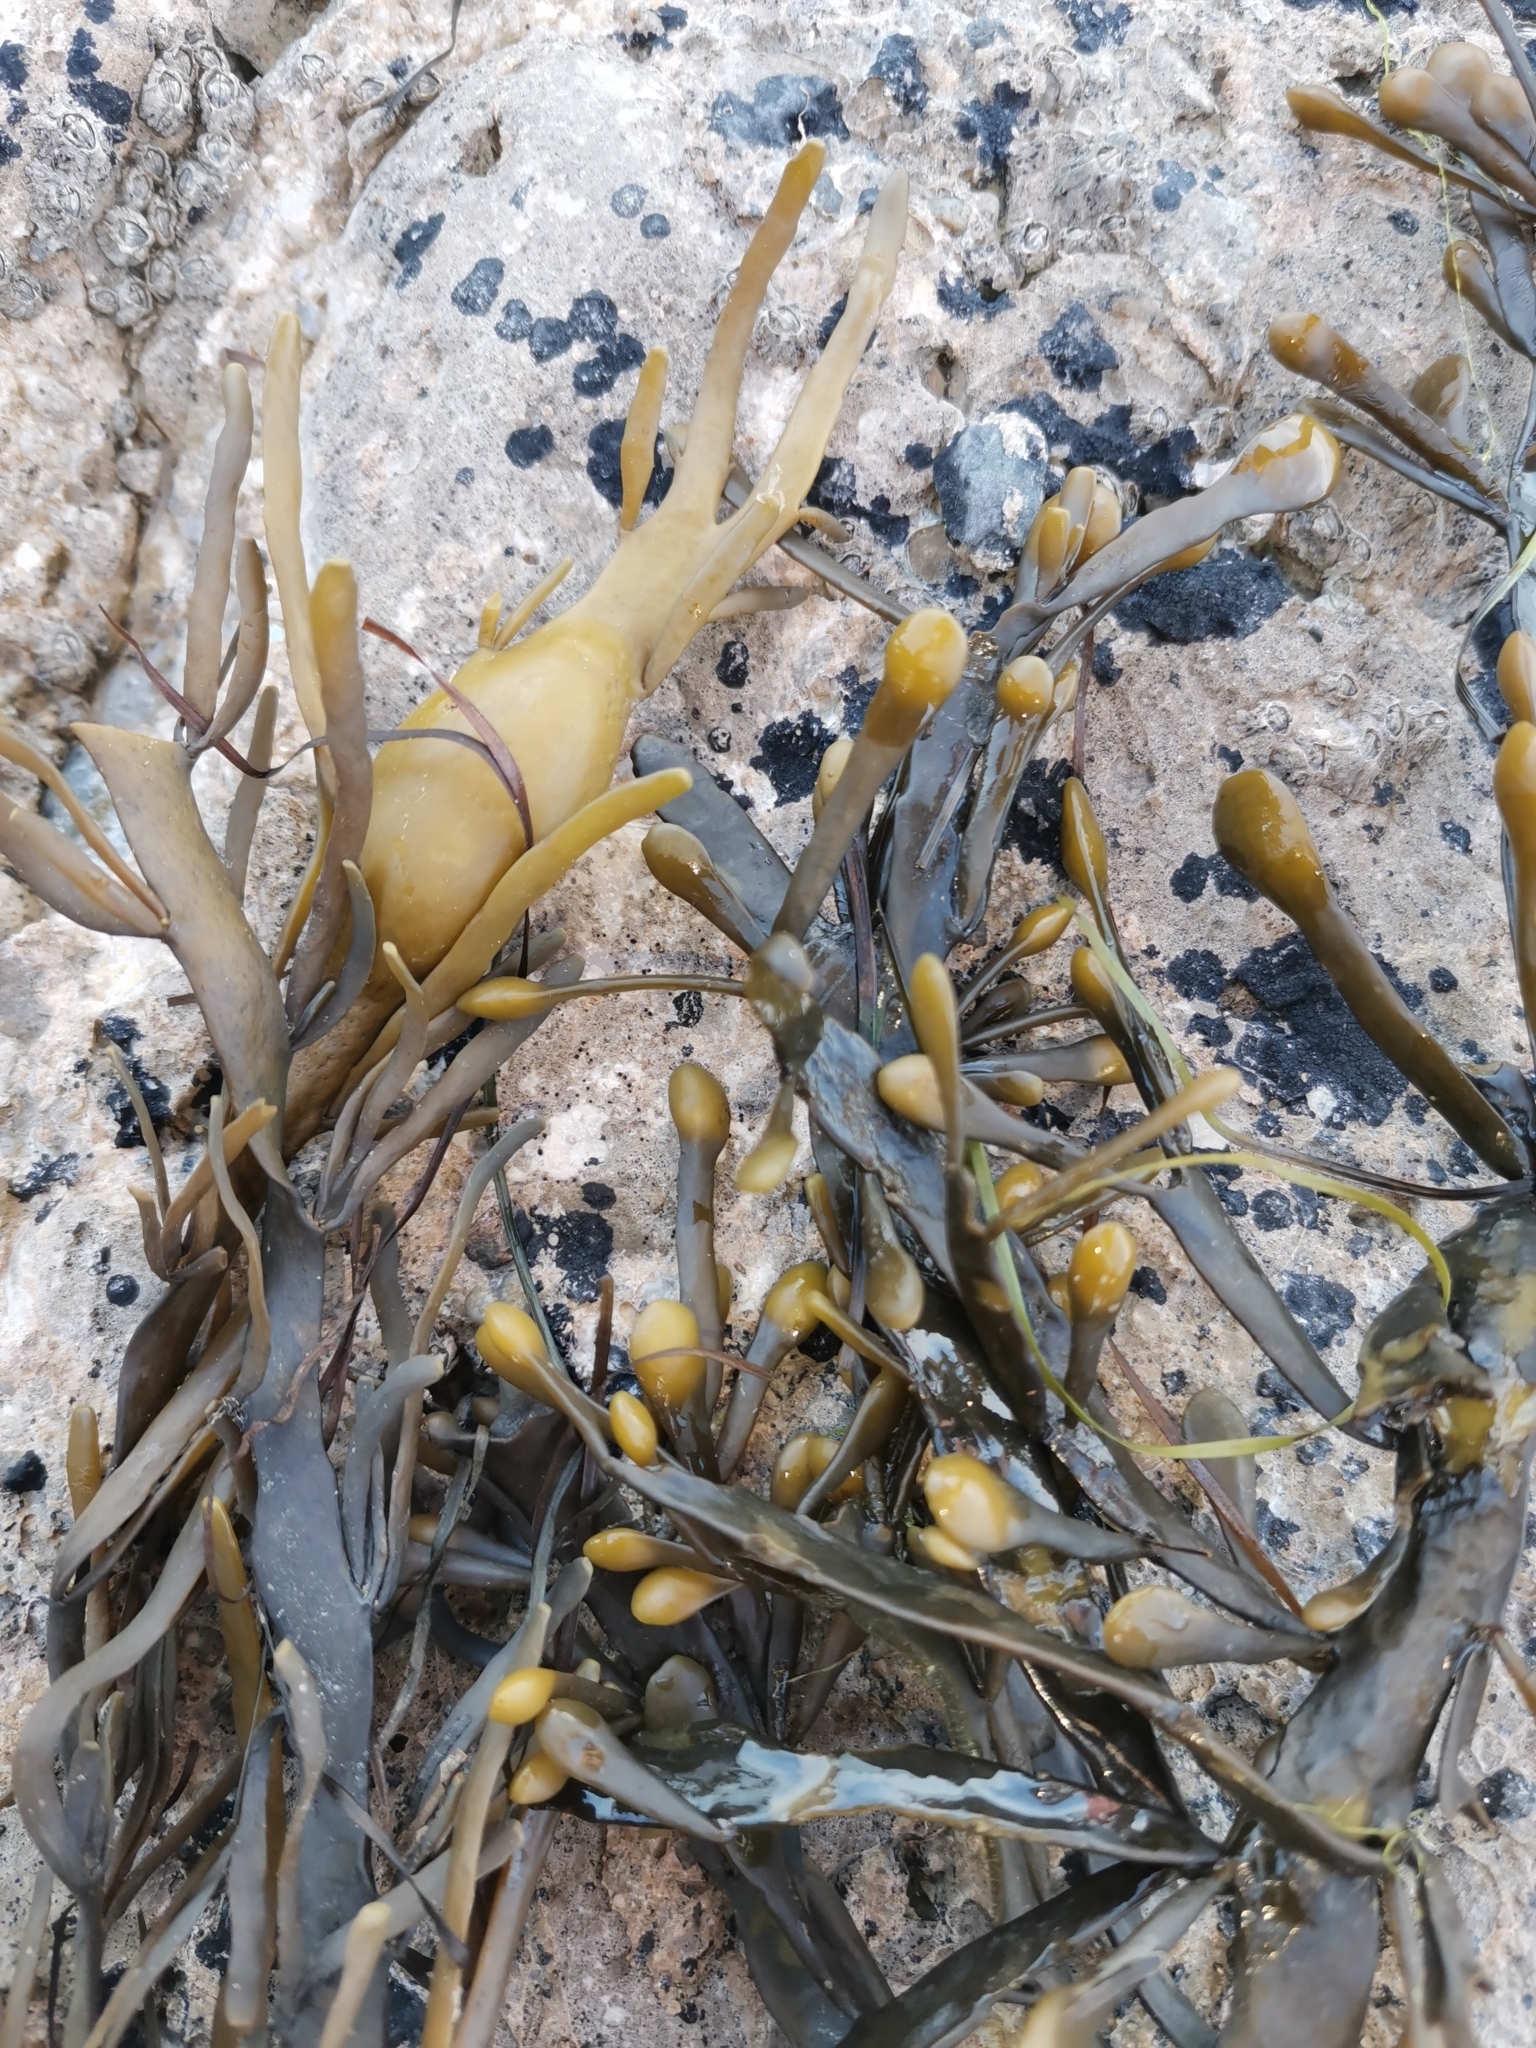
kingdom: Chromista
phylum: Ochrophyta
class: Phaeophyceae
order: Fucales
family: Fucaceae
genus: Ascophyllum
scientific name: Ascophyllum nodosum
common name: Knotted wrack
